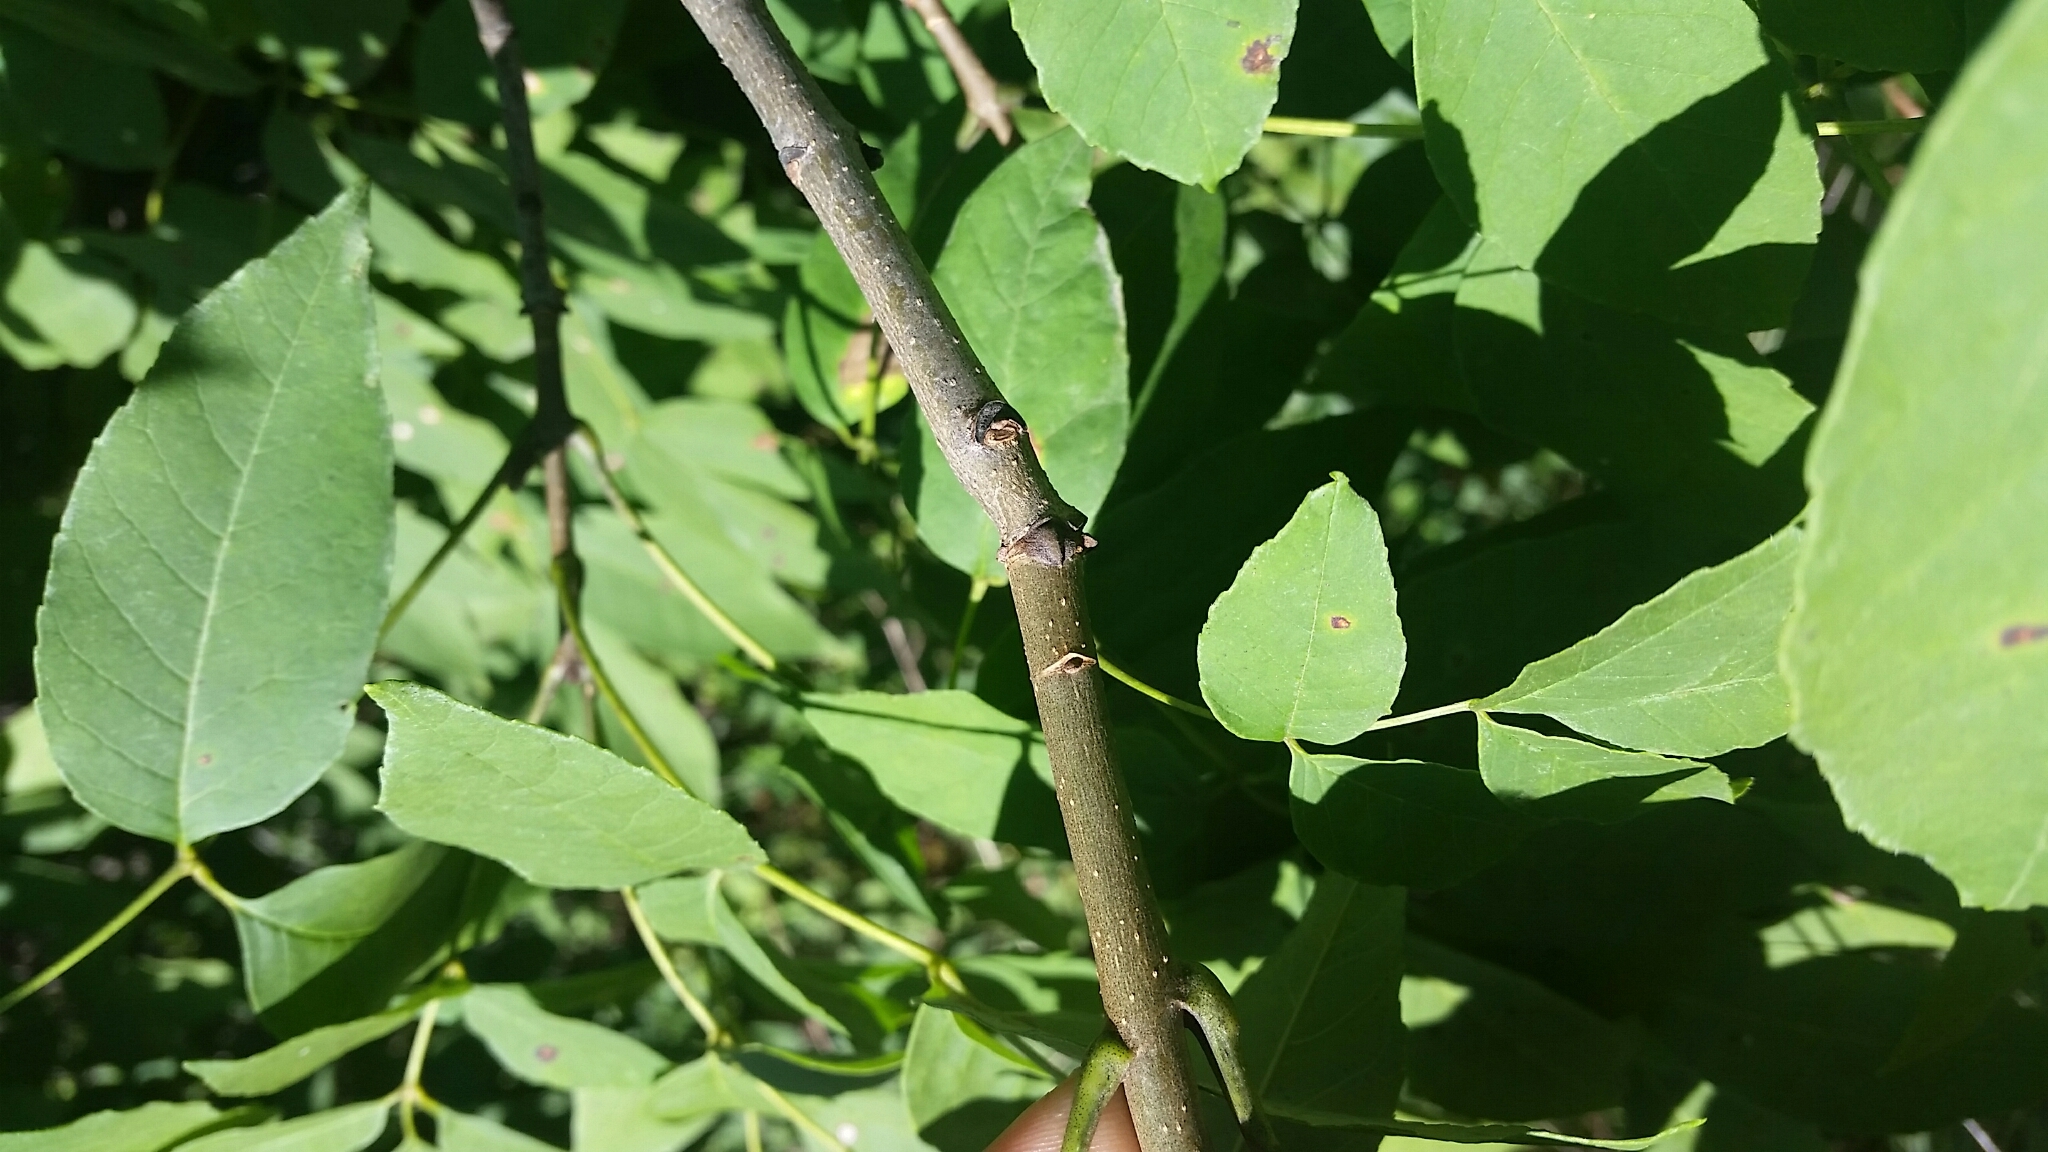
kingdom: Plantae
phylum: Tracheophyta
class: Magnoliopsida
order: Lamiales
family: Oleaceae
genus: Fraxinus
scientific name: Fraxinus pennsylvanica
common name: Green ash
